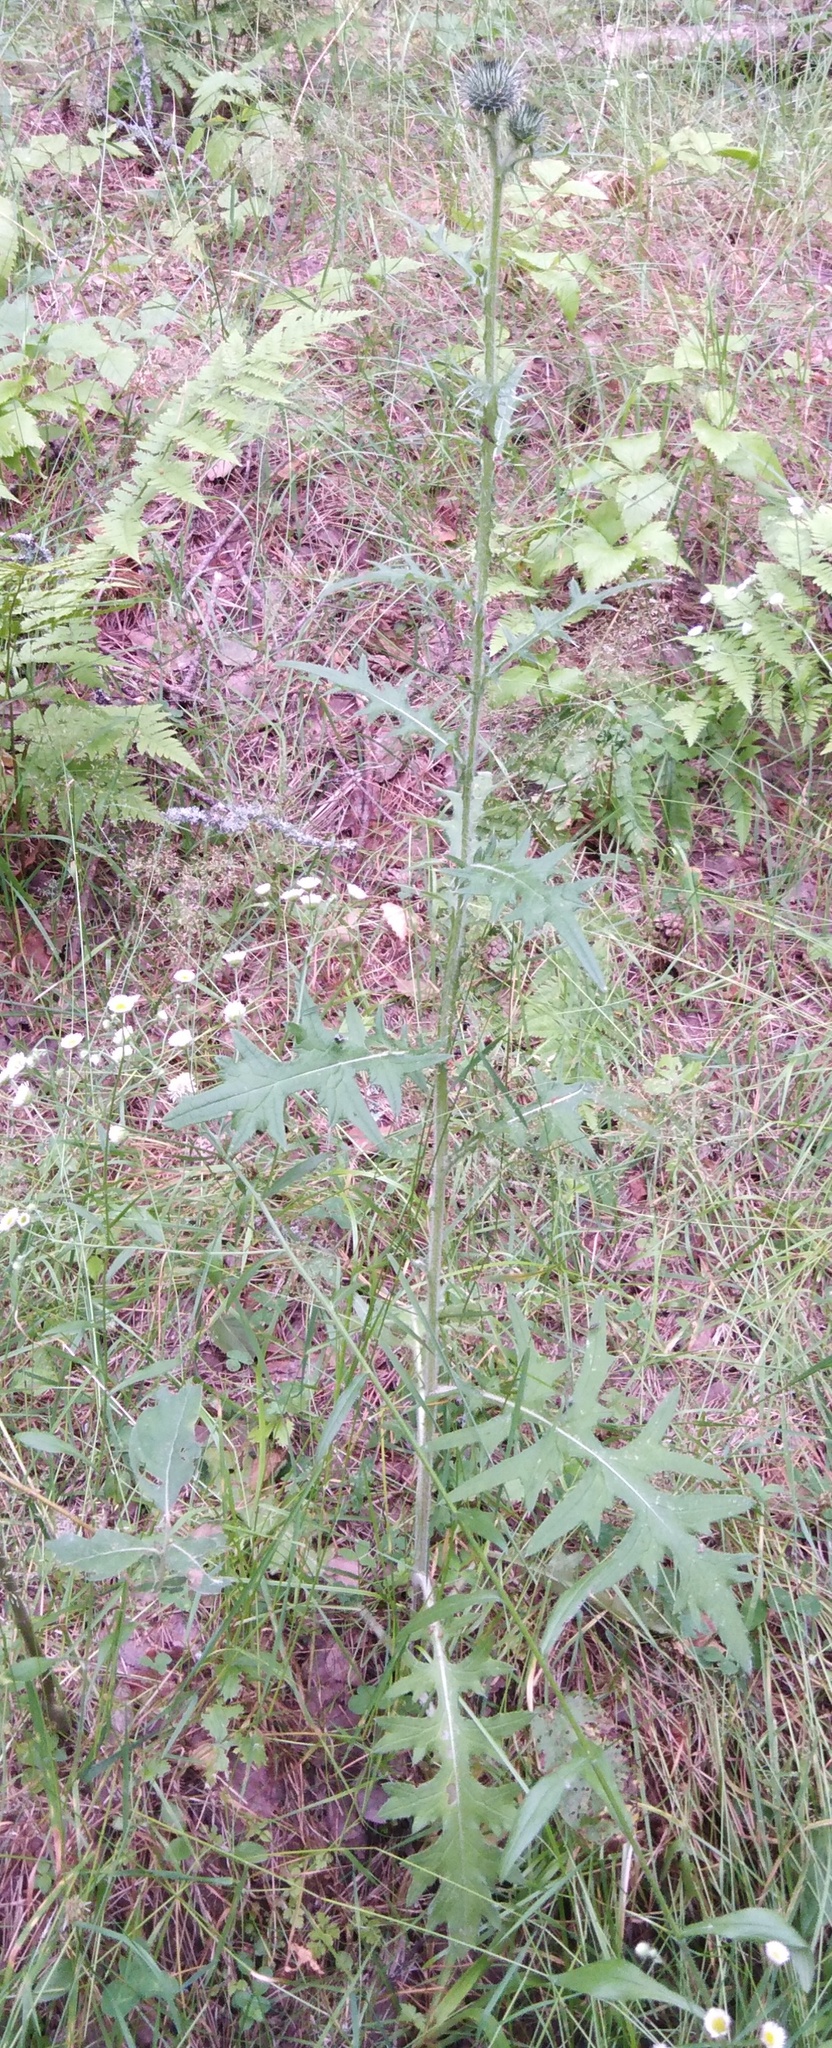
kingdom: Plantae
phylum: Tracheophyta
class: Magnoliopsida
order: Asterales
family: Asteraceae
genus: Cirsium
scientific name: Cirsium vulgare
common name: Bull thistle
